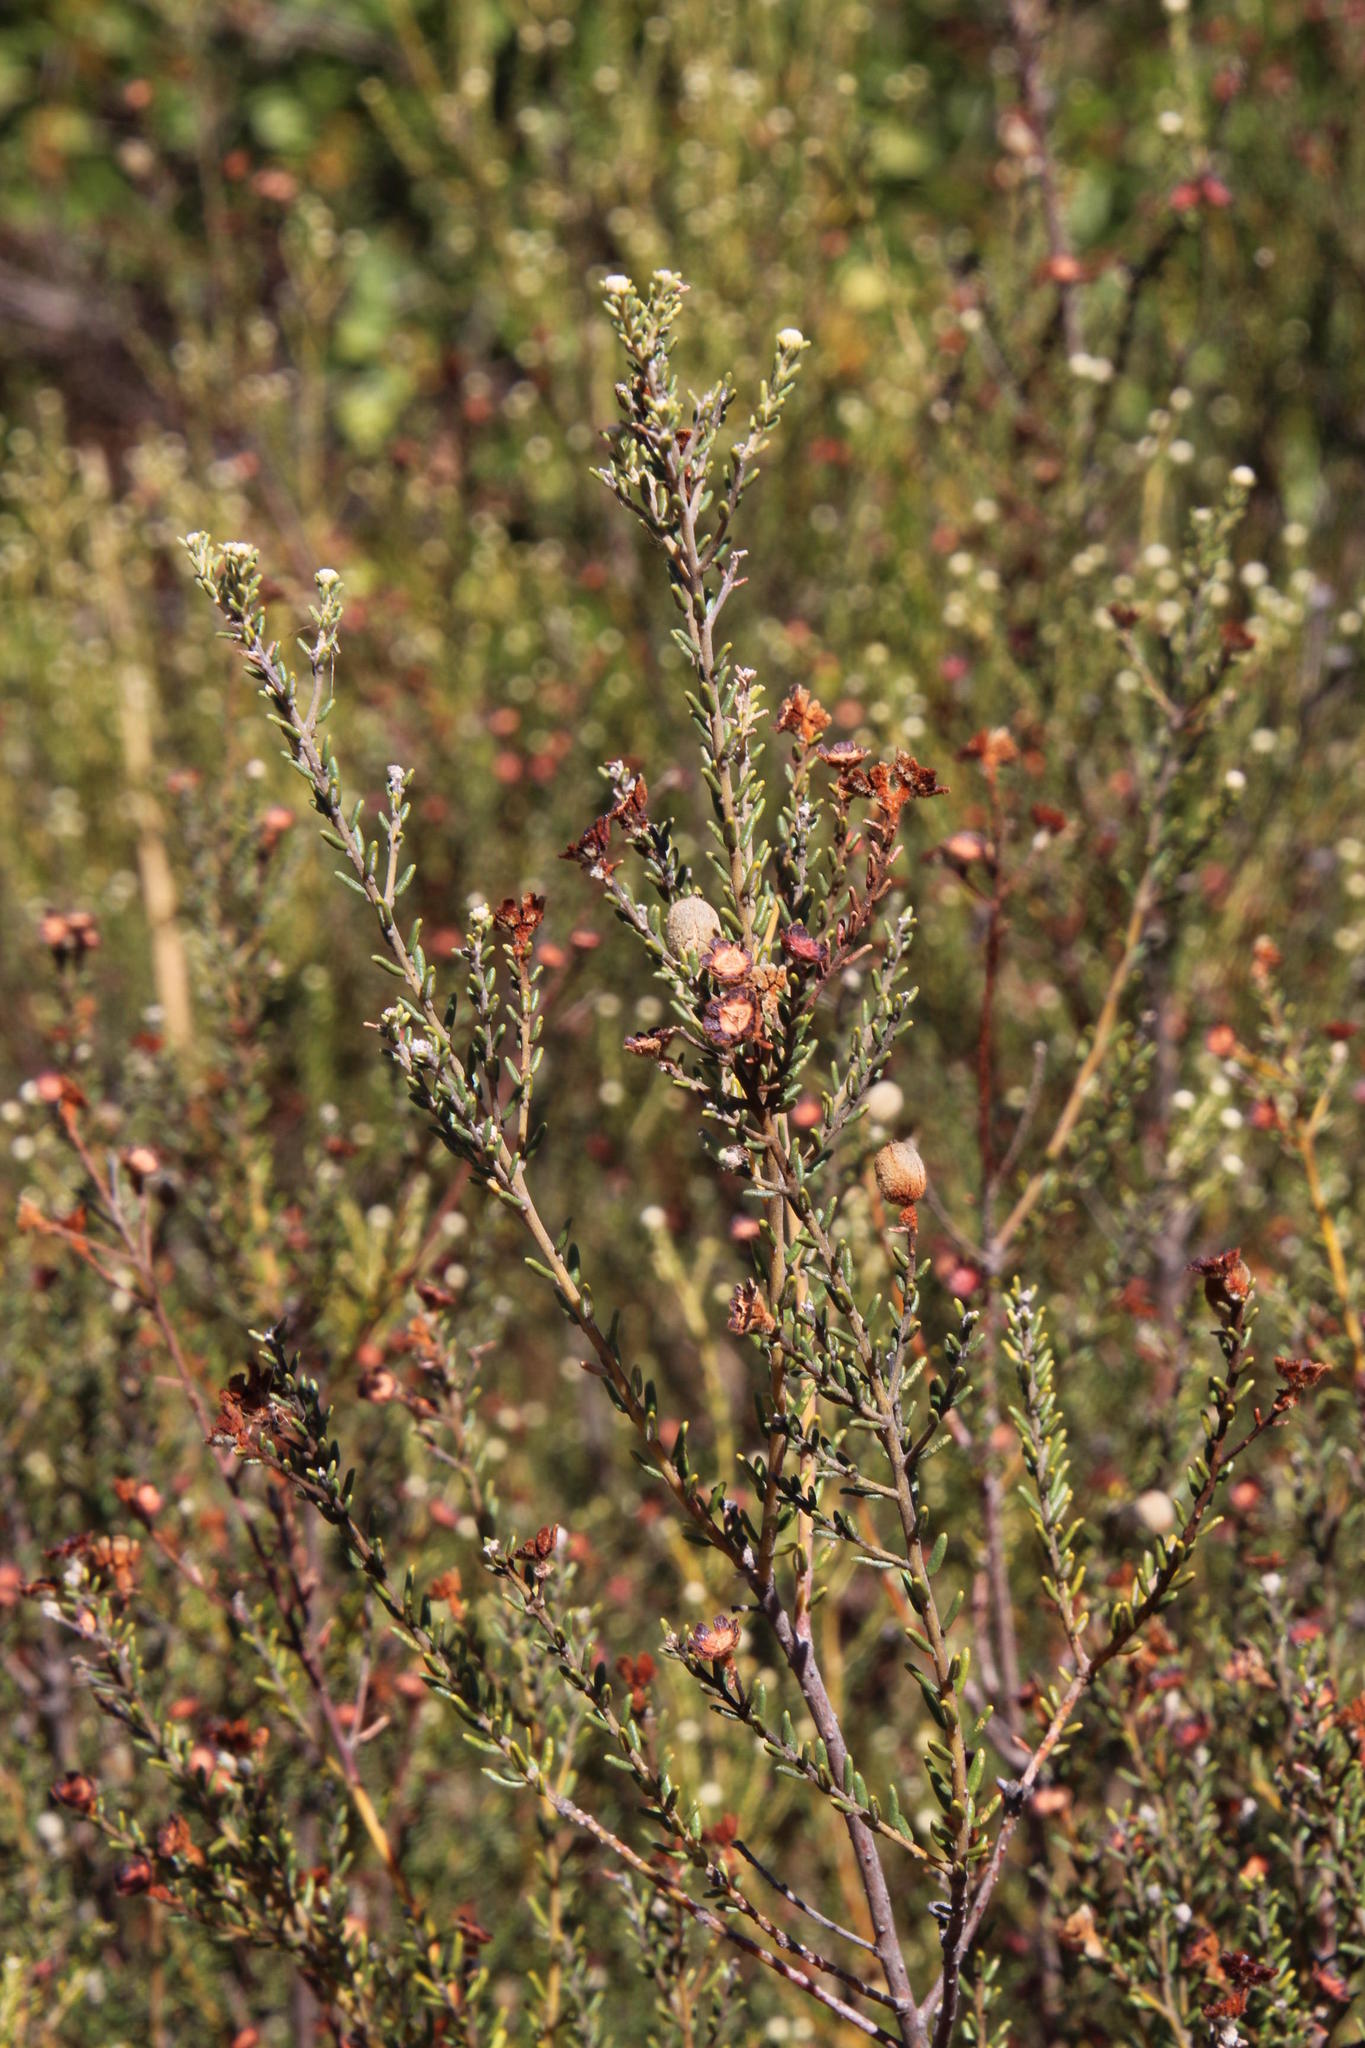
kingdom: Plantae
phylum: Tracheophyta
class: Magnoliopsida
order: Rosales
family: Rhamnaceae
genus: Phylica
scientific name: Phylica cephalantha
